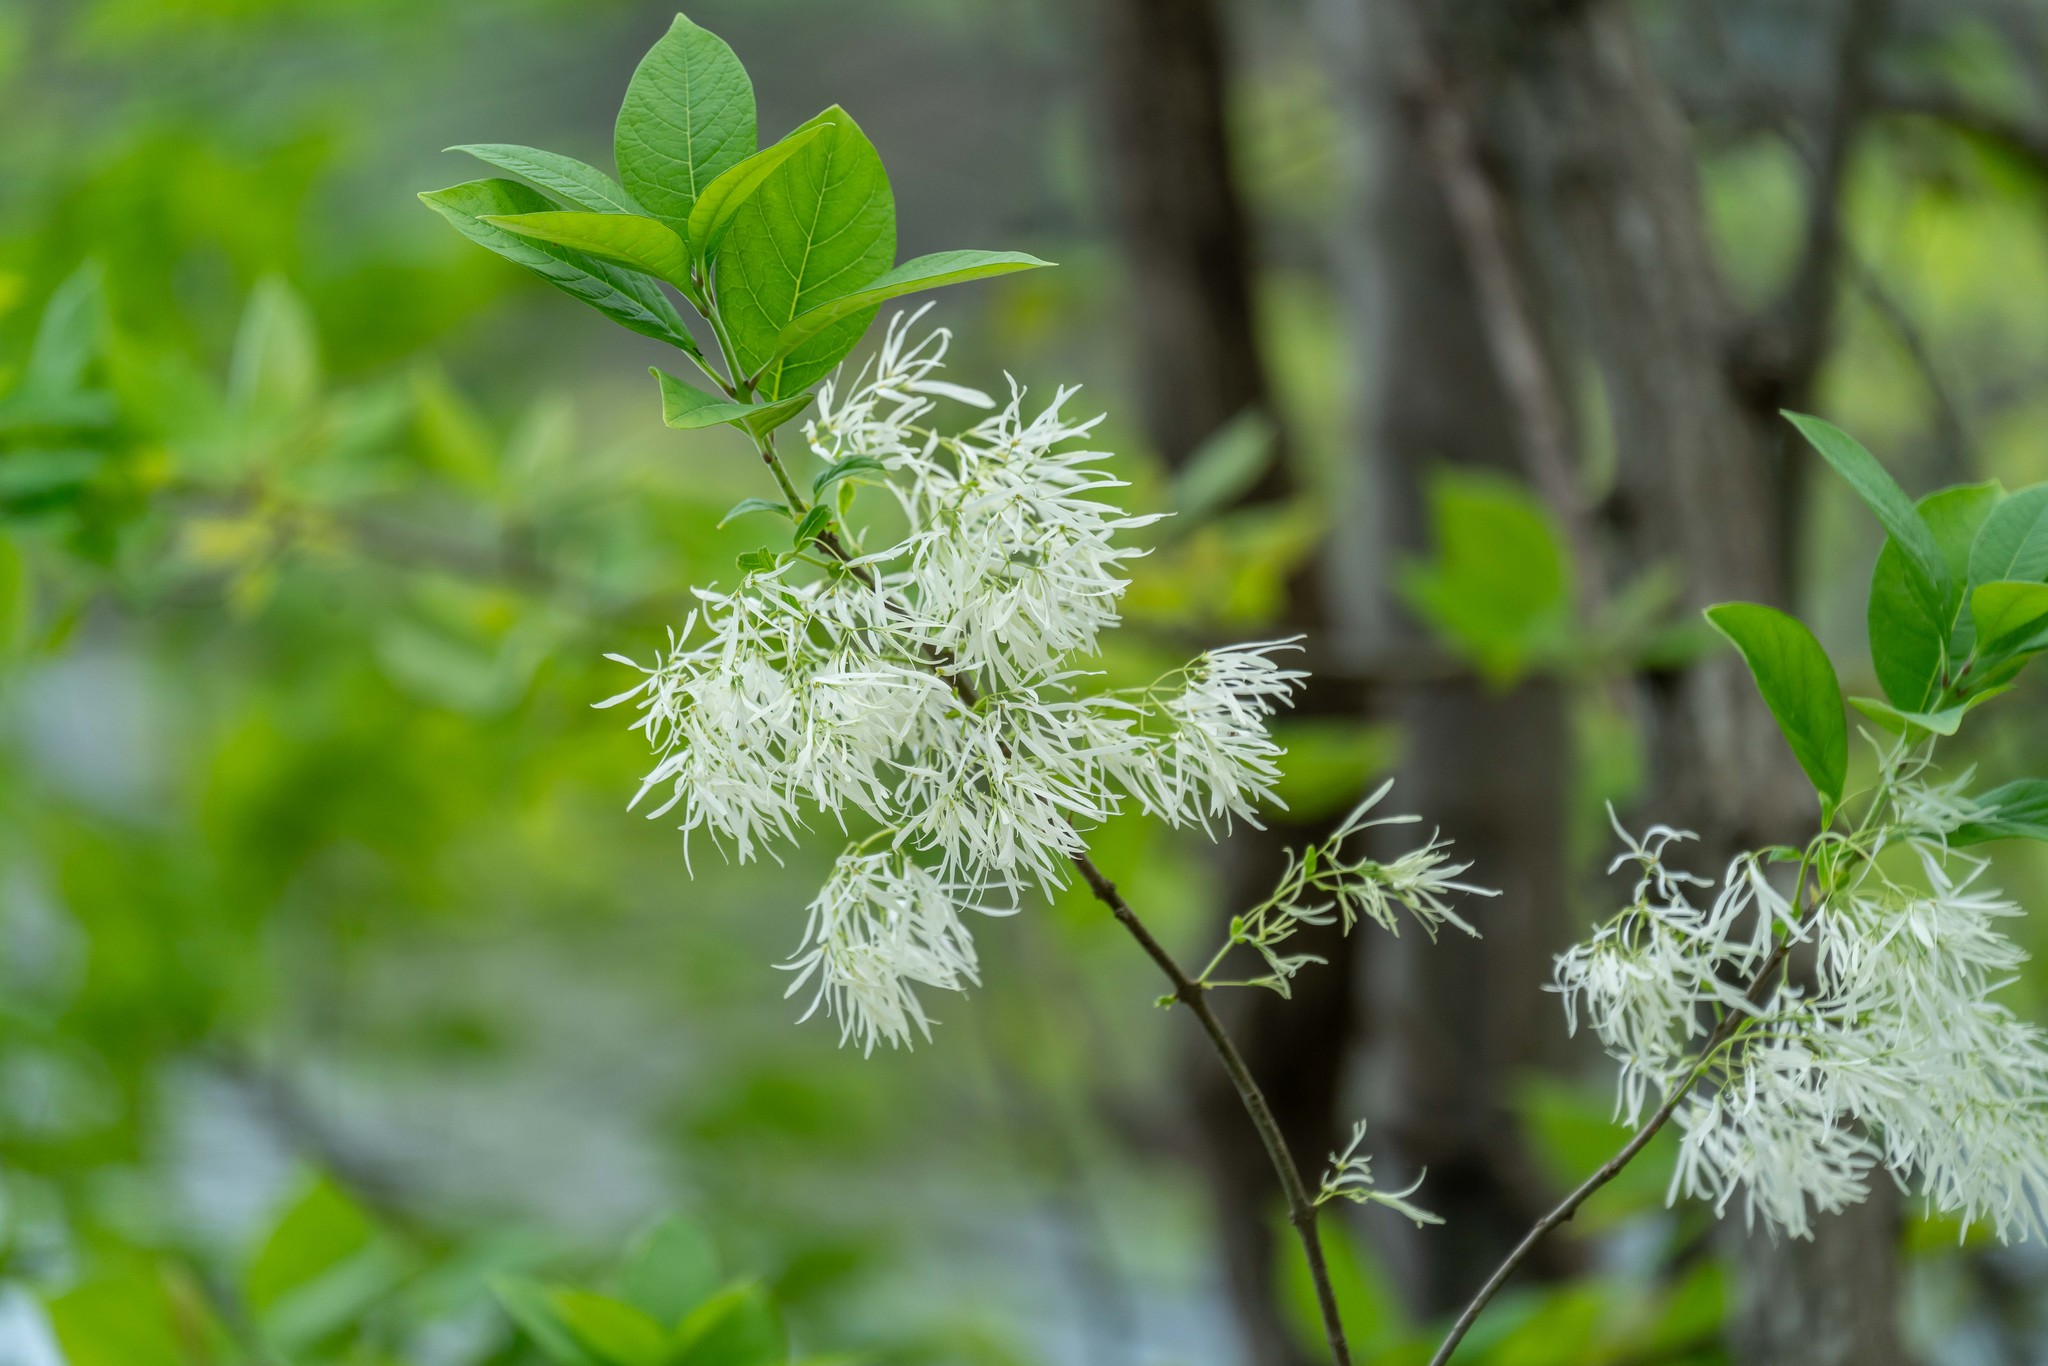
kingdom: Plantae
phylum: Tracheophyta
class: Magnoliopsida
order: Lamiales
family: Oleaceae
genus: Chionanthus
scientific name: Chionanthus virginicus
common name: American fringetree
